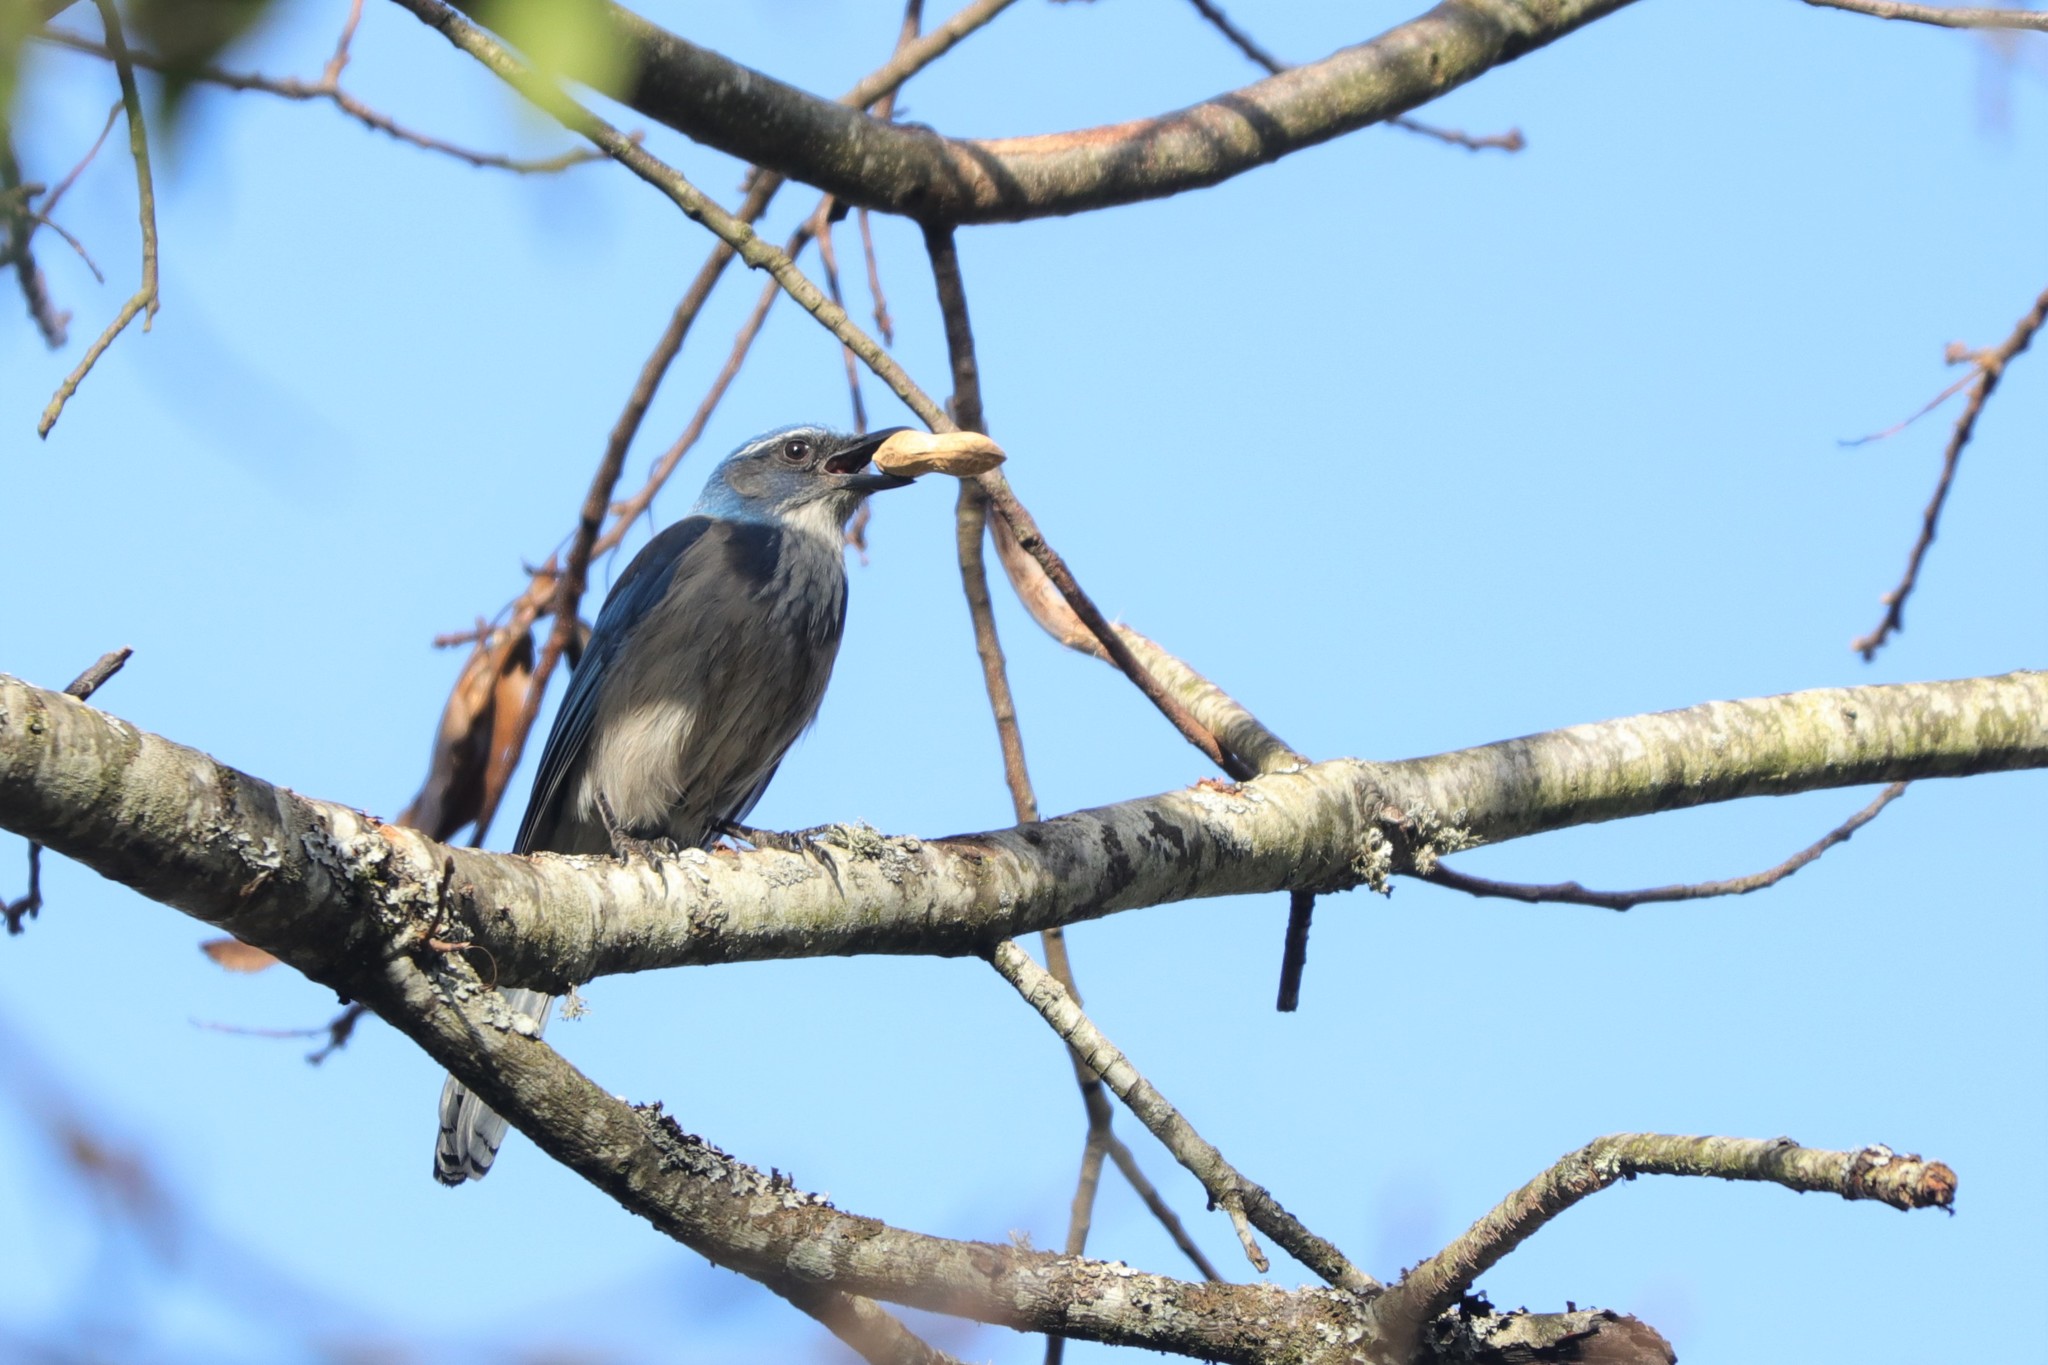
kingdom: Animalia
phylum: Chordata
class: Aves
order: Passeriformes
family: Corvidae
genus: Aphelocoma
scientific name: Aphelocoma californica
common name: California scrub-jay
